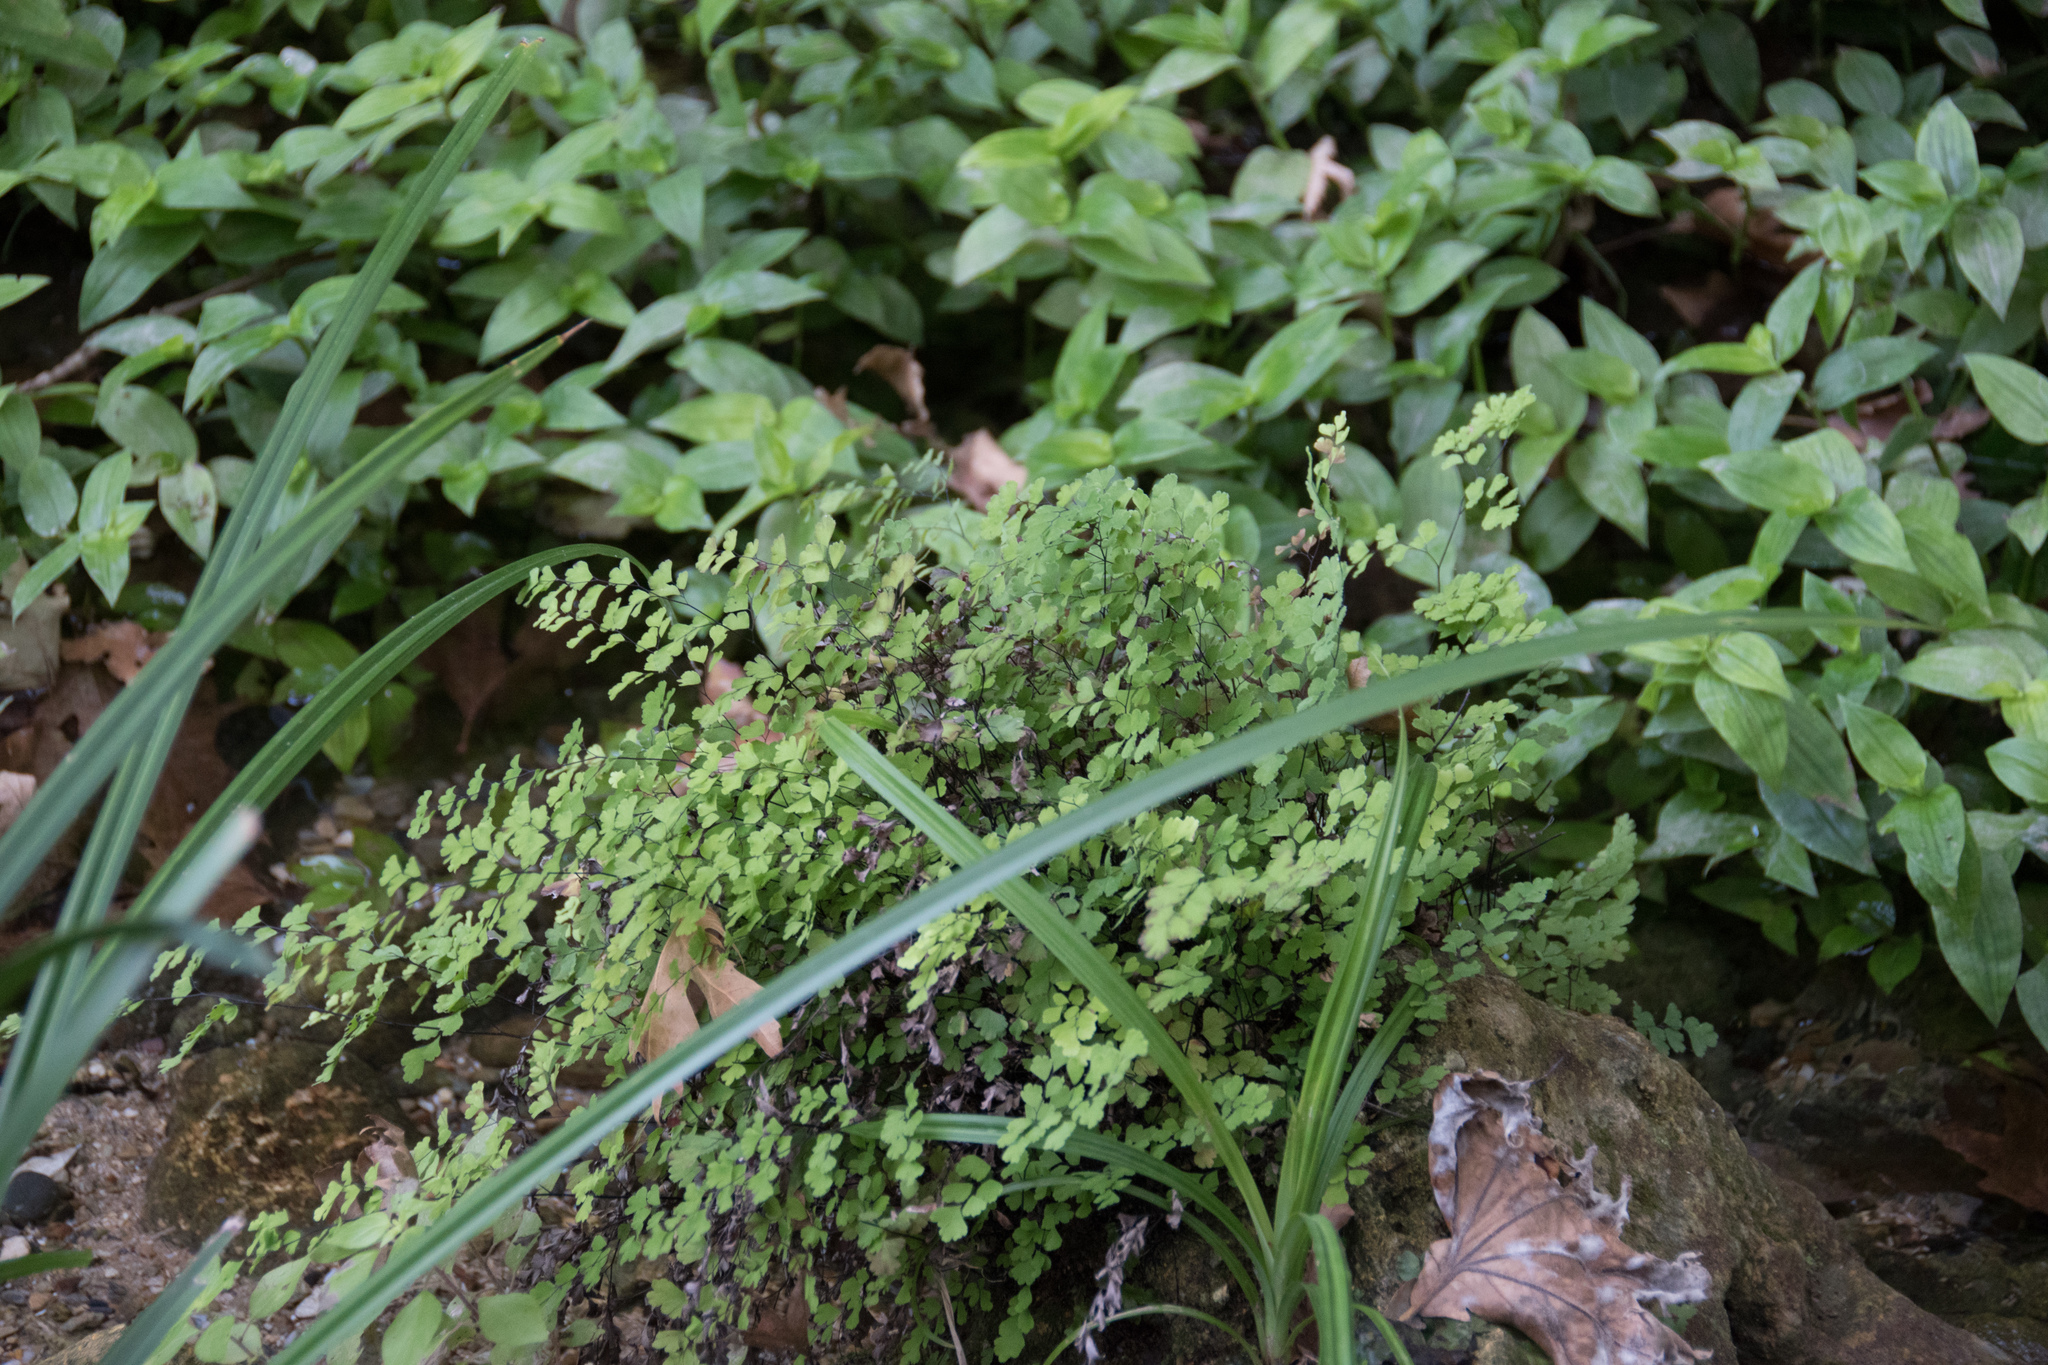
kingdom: Plantae
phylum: Tracheophyta
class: Polypodiopsida
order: Polypodiales
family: Pteridaceae
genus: Adiantum
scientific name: Adiantum capillus-veneris
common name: Maidenhair fern
